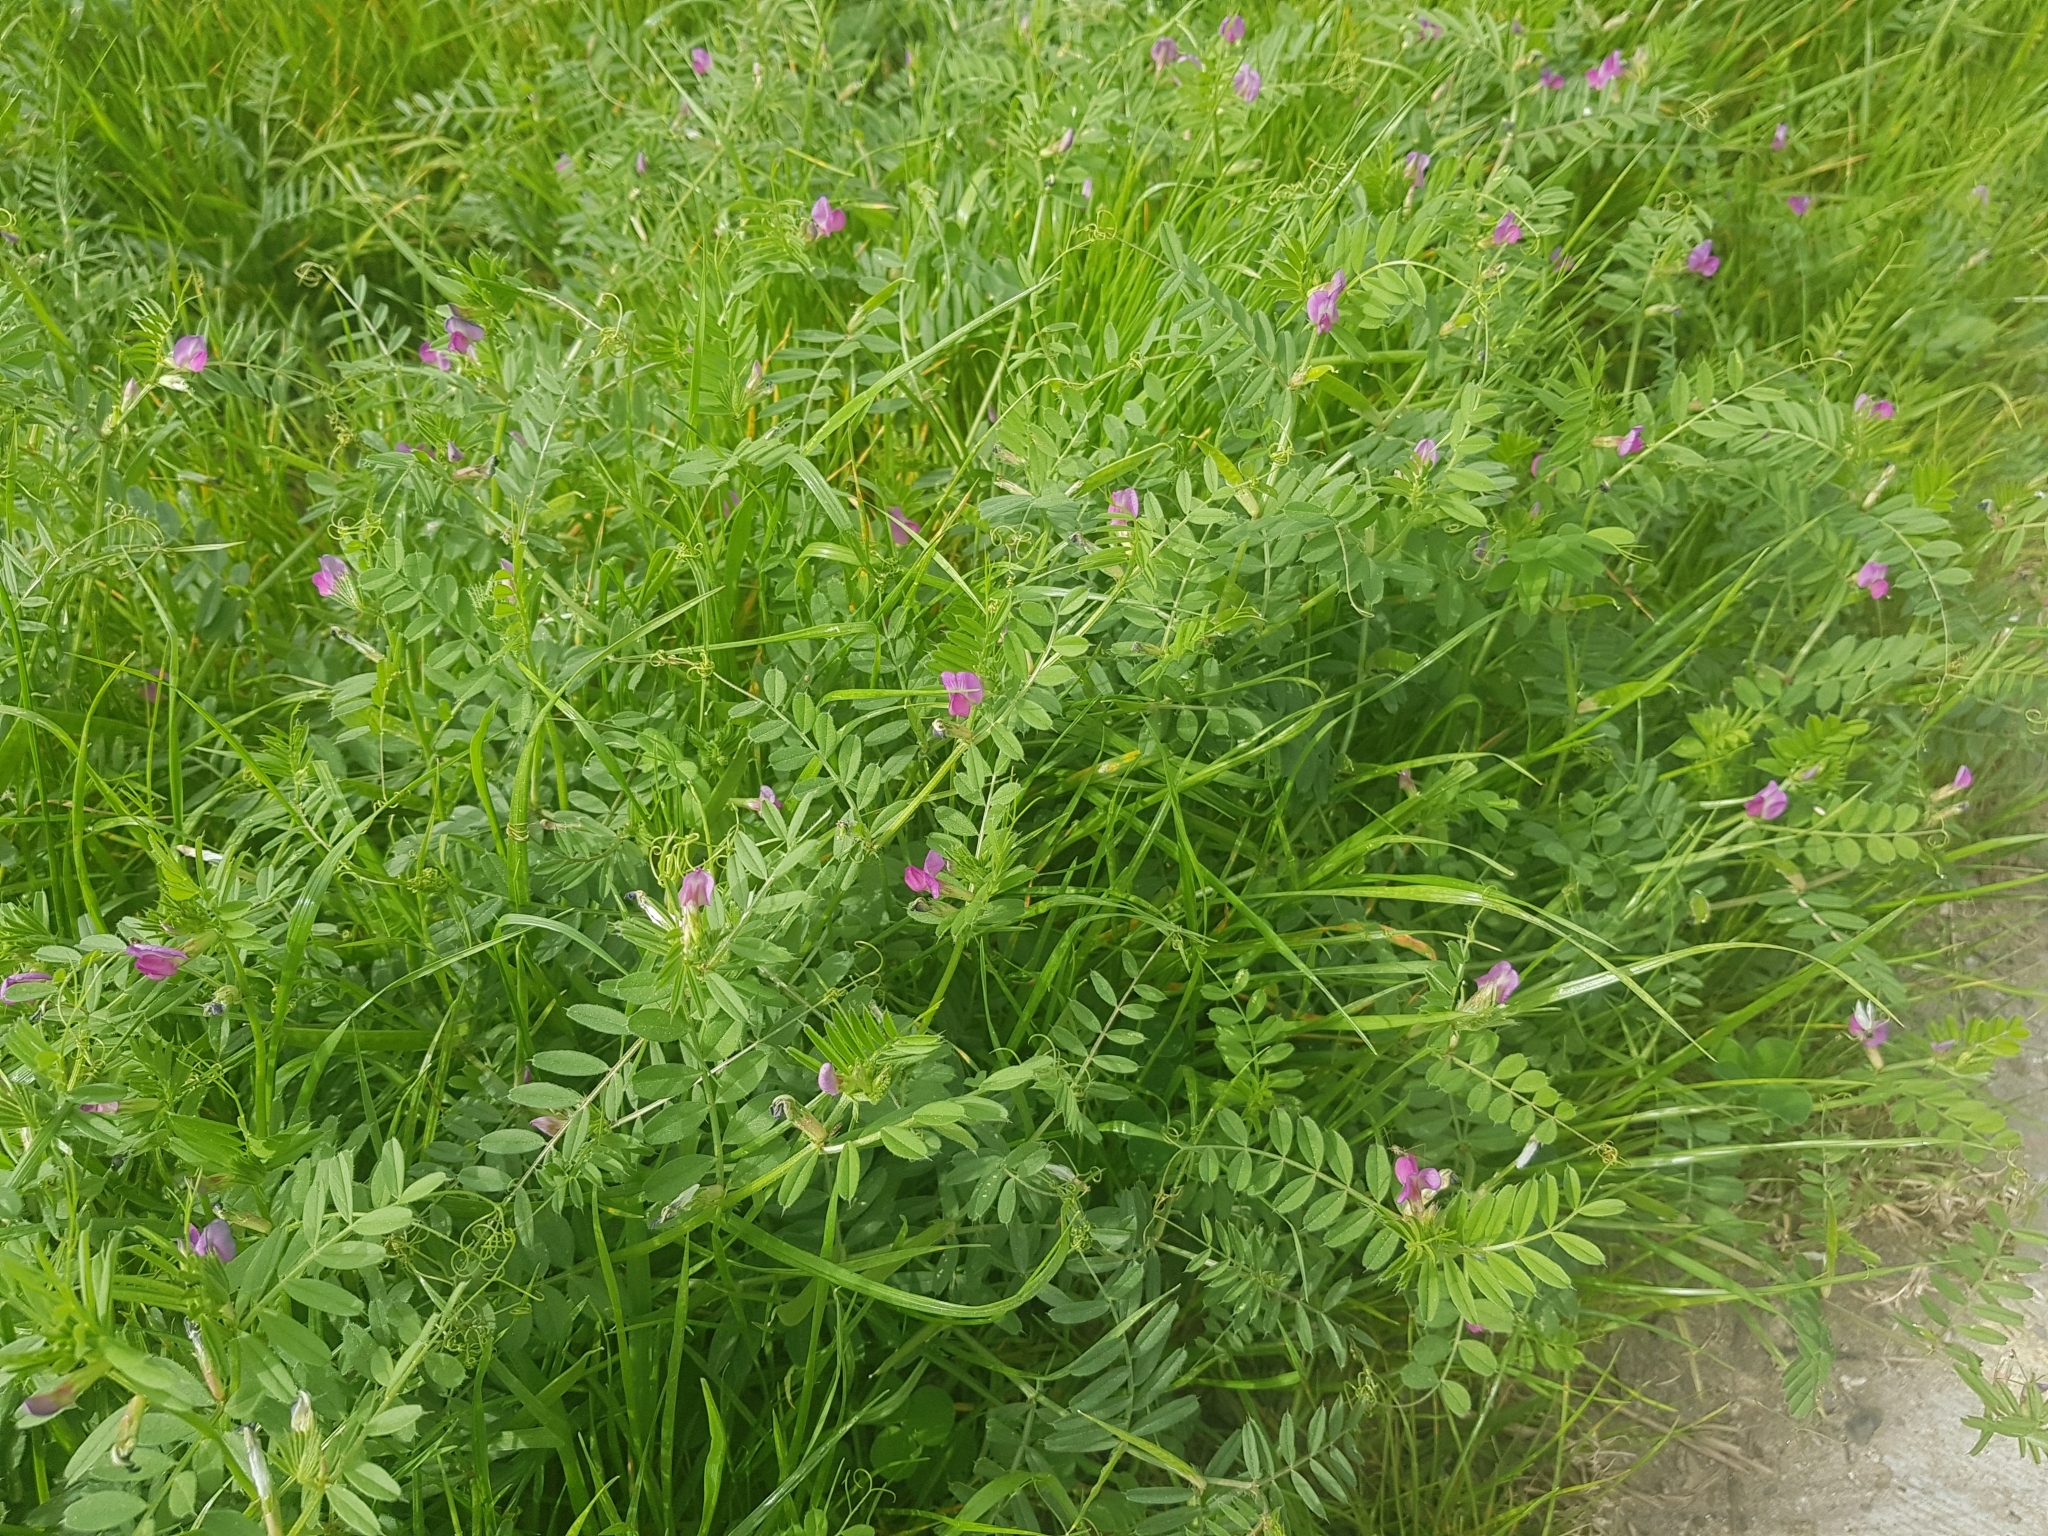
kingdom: Plantae
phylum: Tracheophyta
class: Magnoliopsida
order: Fabales
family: Fabaceae
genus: Vicia
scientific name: Vicia sativa
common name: Garden vetch
